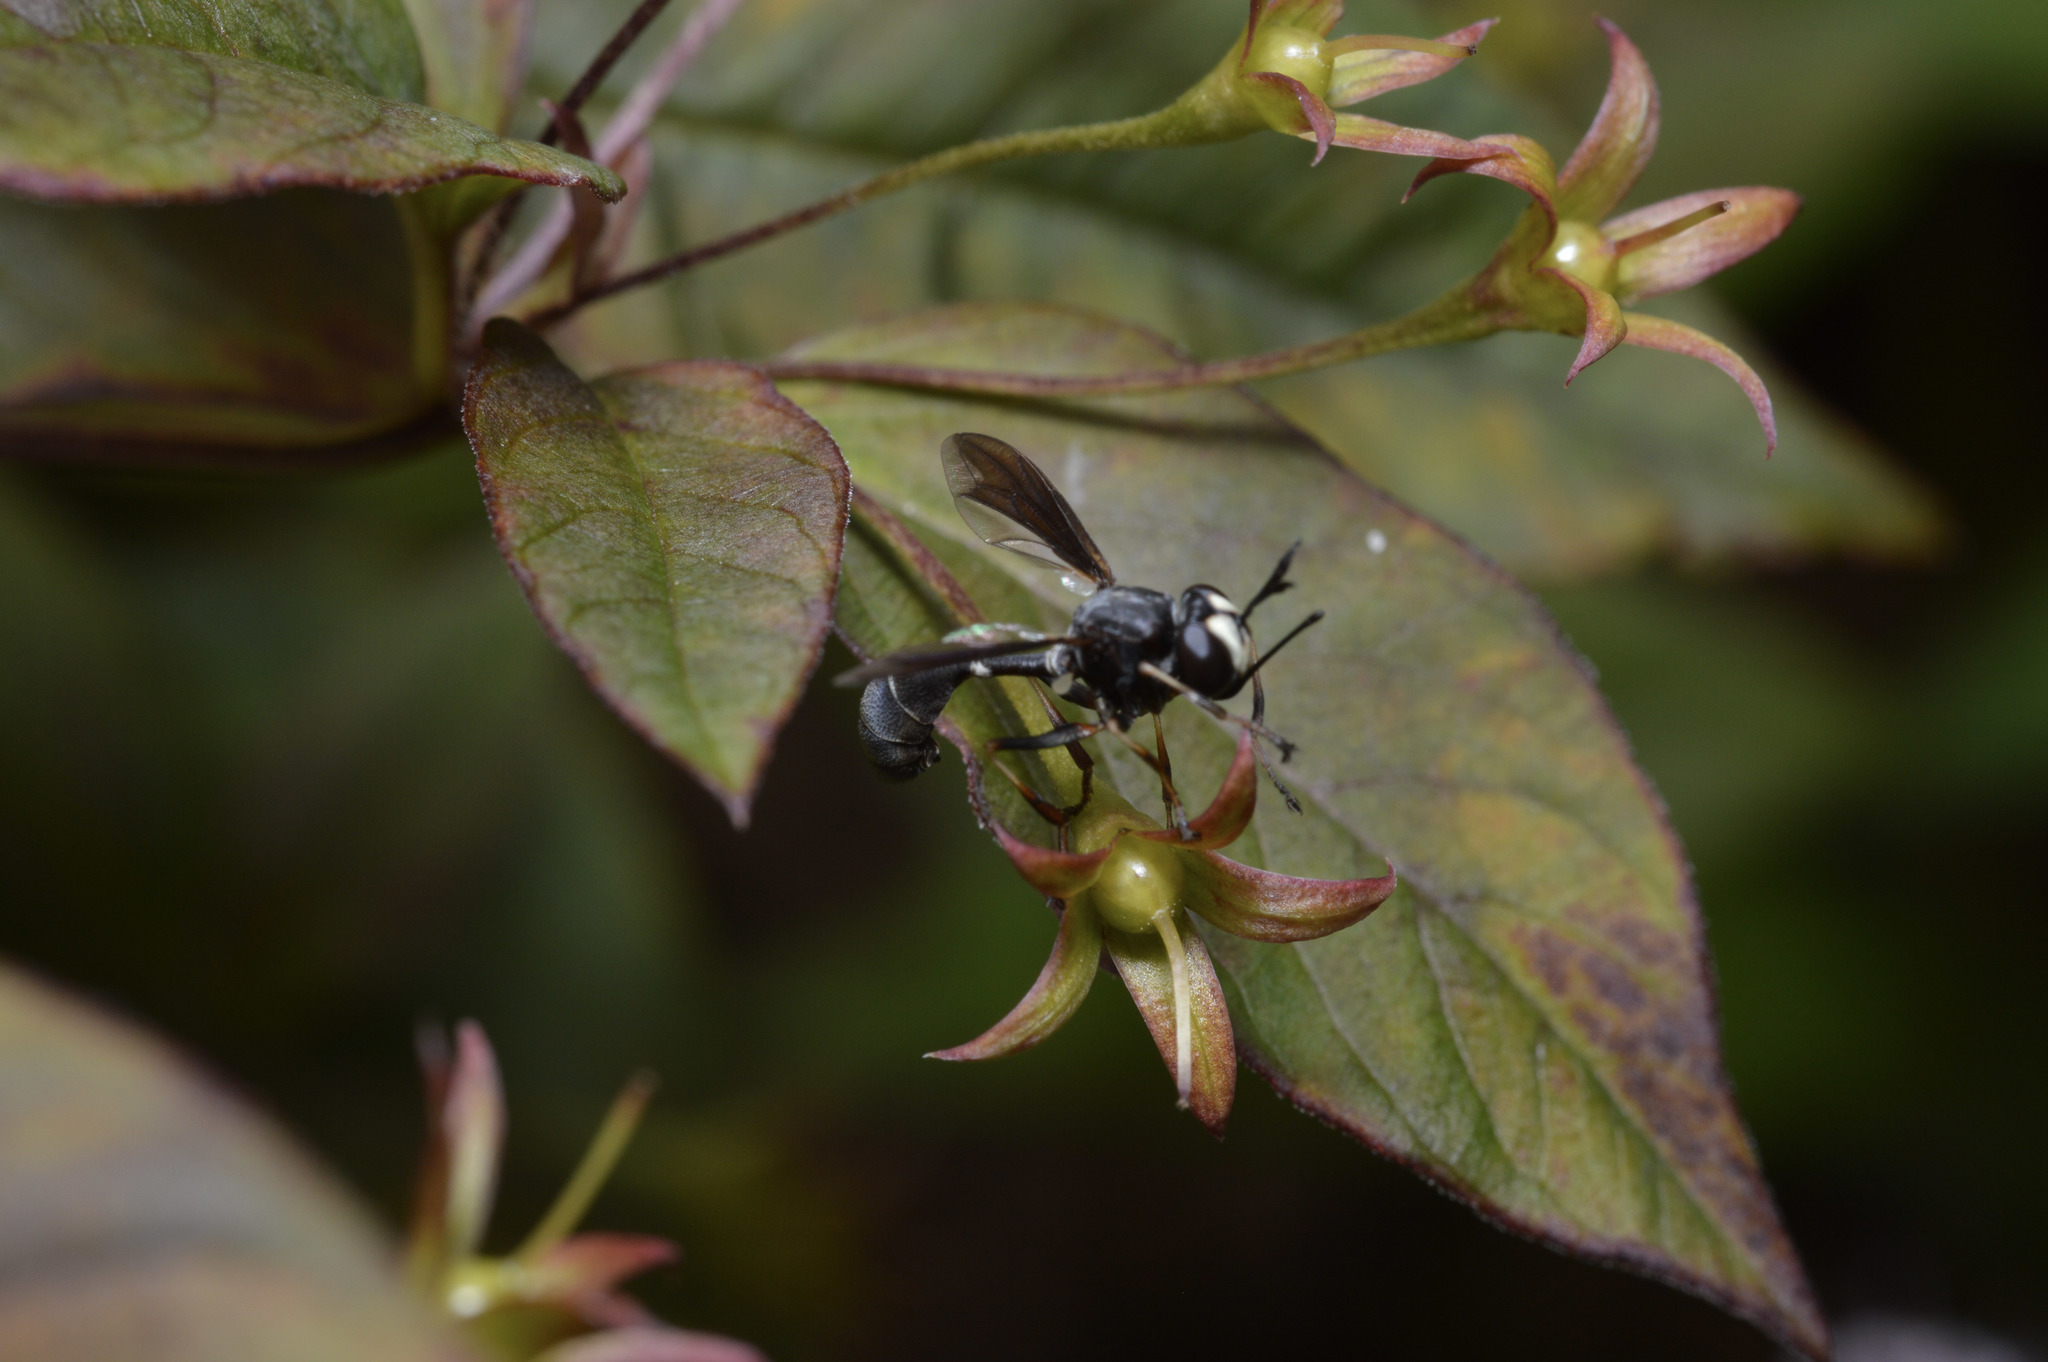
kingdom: Animalia
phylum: Arthropoda
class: Insecta
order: Diptera
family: Conopidae
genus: Physocephala
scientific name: Physocephala tibialis
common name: Common eastern physocephala
